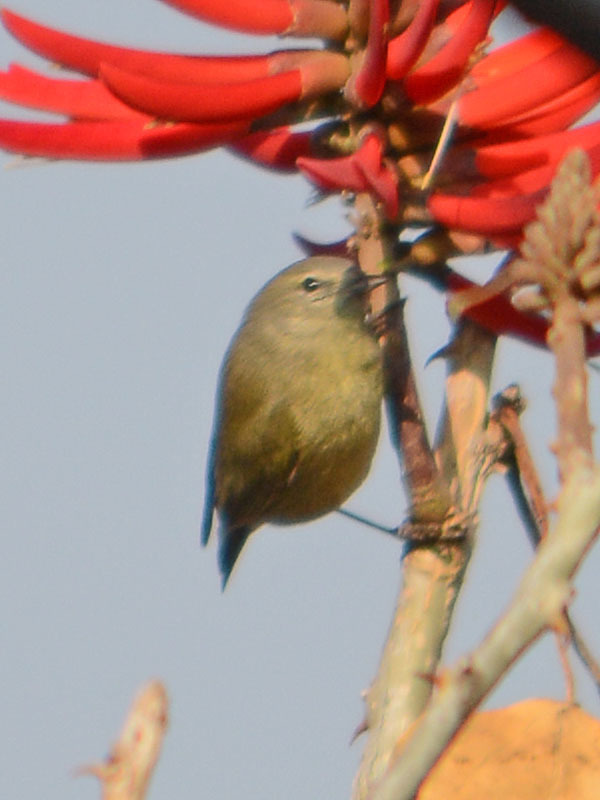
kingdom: Animalia
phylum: Chordata
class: Aves
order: Passeriformes
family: Parulidae
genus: Leiothlypis
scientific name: Leiothlypis celata
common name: Orange-crowned warbler
